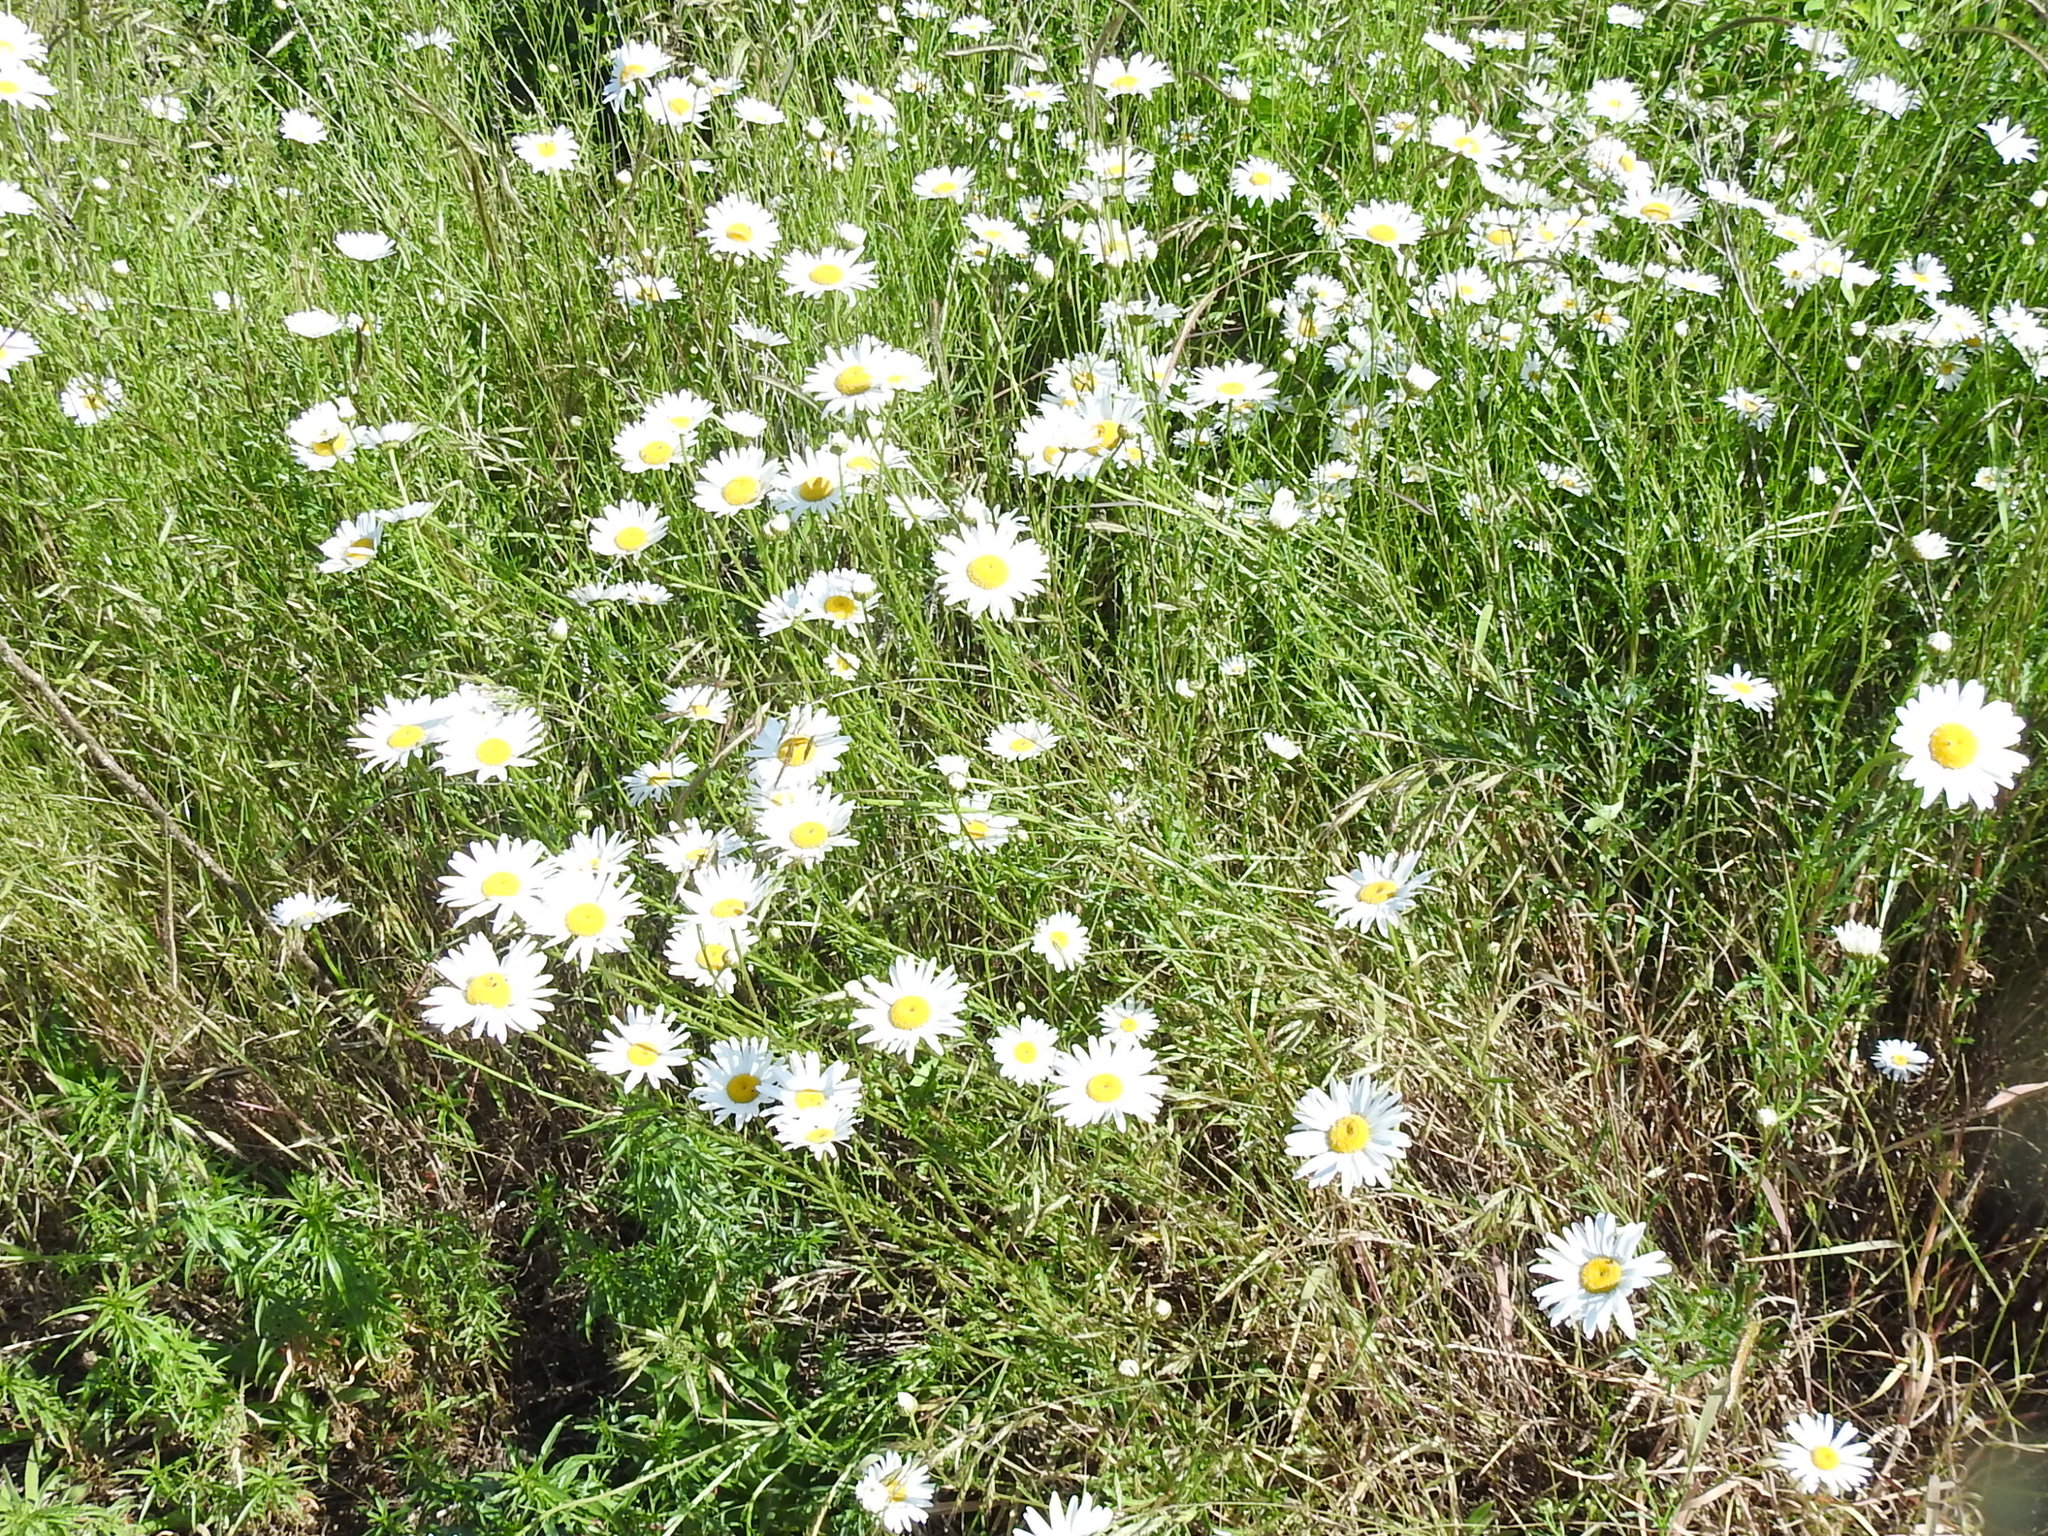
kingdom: Plantae
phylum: Tracheophyta
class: Magnoliopsida
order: Asterales
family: Asteraceae
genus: Leucanthemum
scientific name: Leucanthemum vulgare
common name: Oxeye daisy
